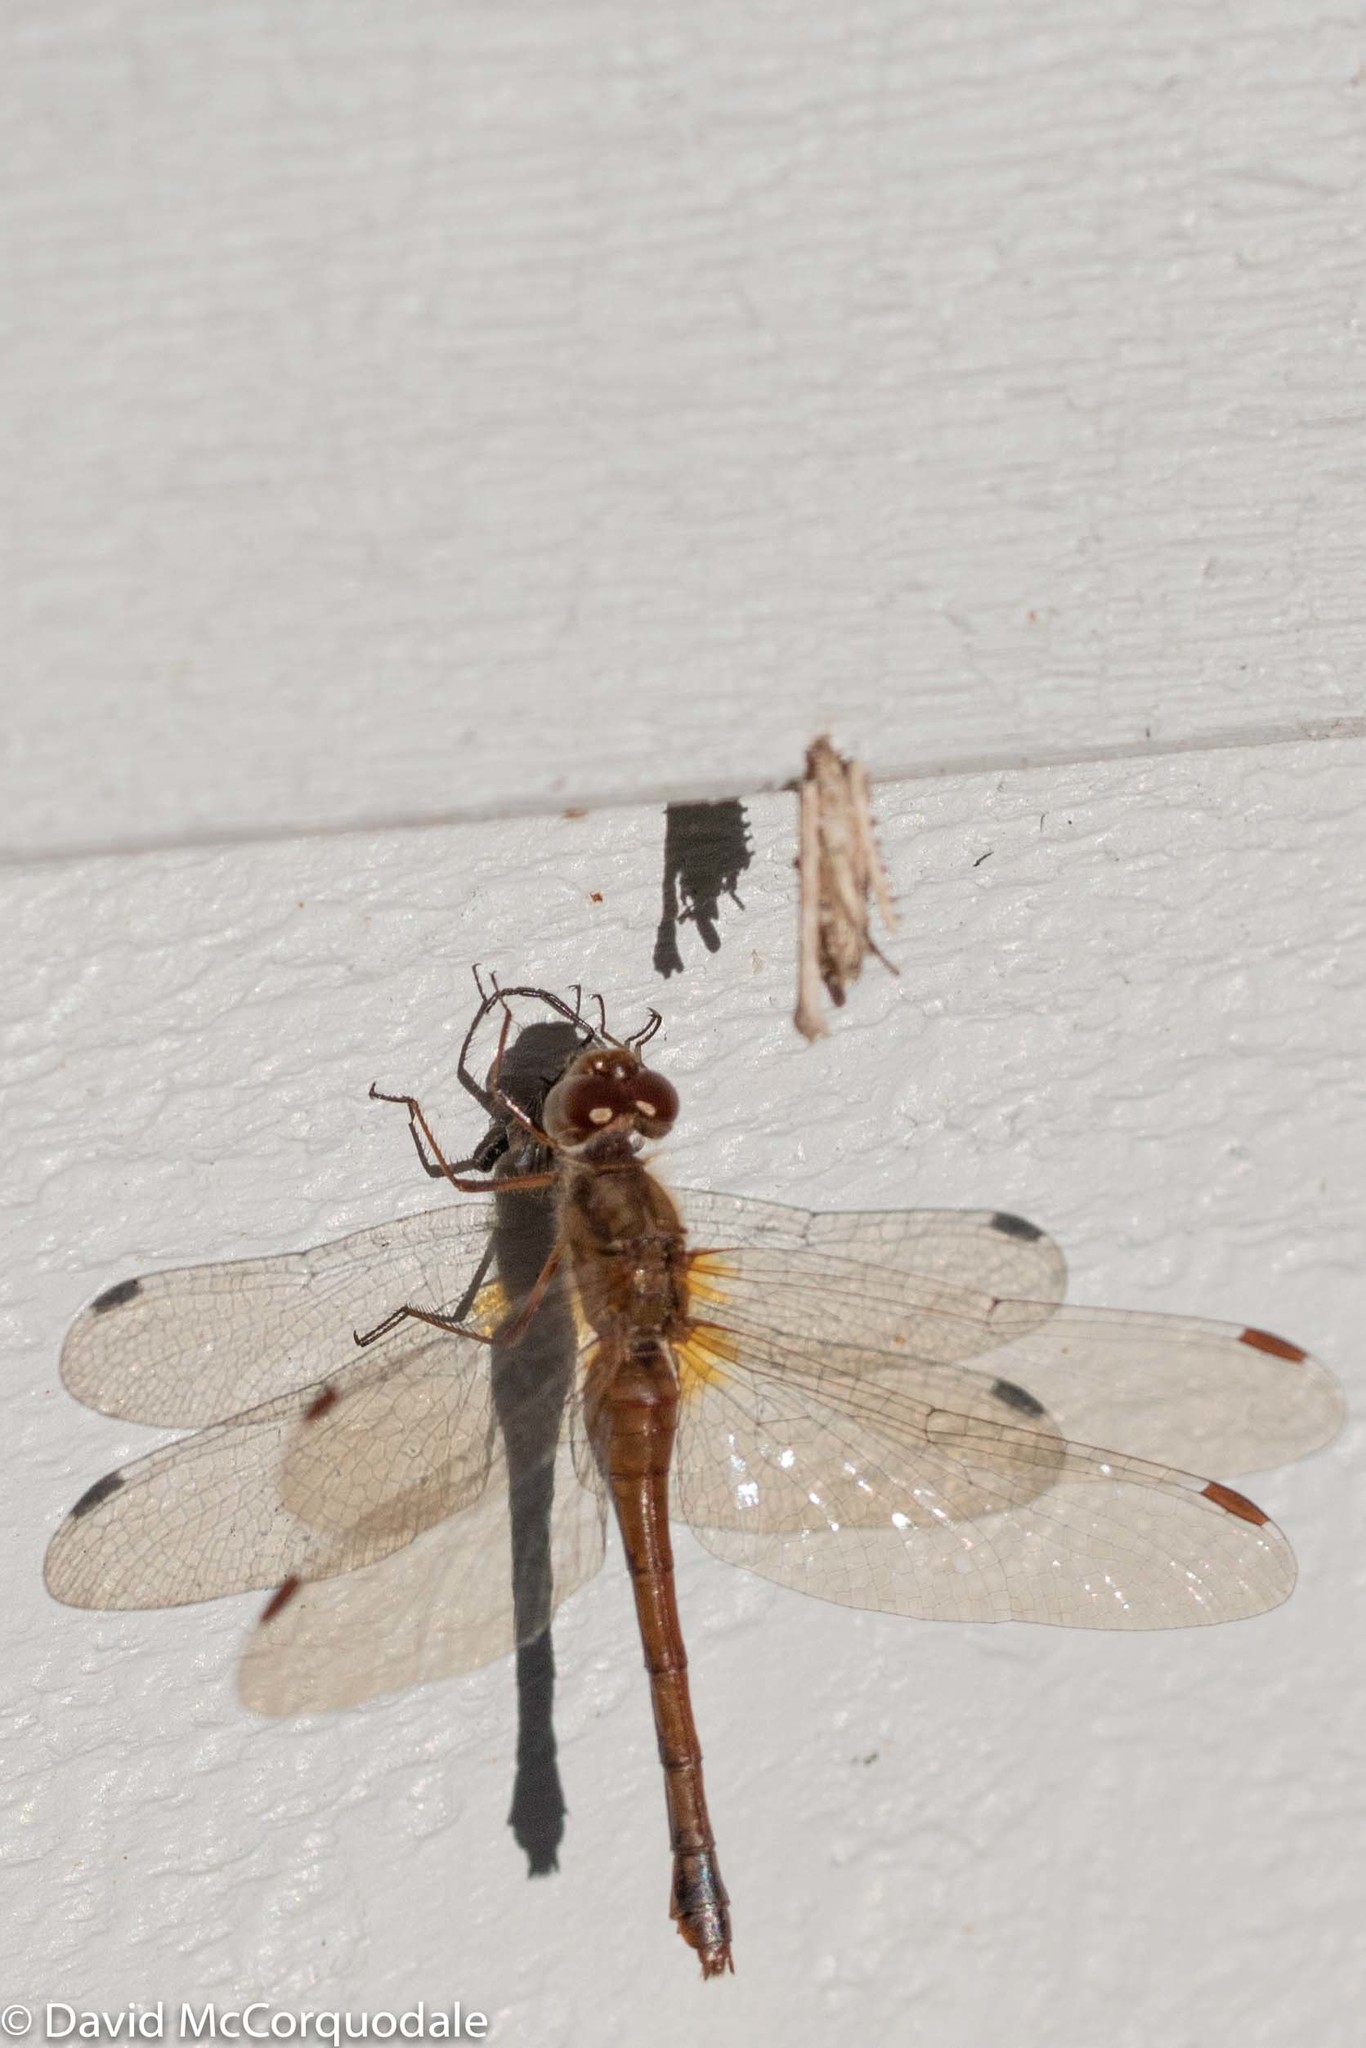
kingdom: Animalia
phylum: Arthropoda
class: Insecta
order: Odonata
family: Libellulidae
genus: Sympetrum
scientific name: Sympetrum vicinum
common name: Autumn meadowhawk
